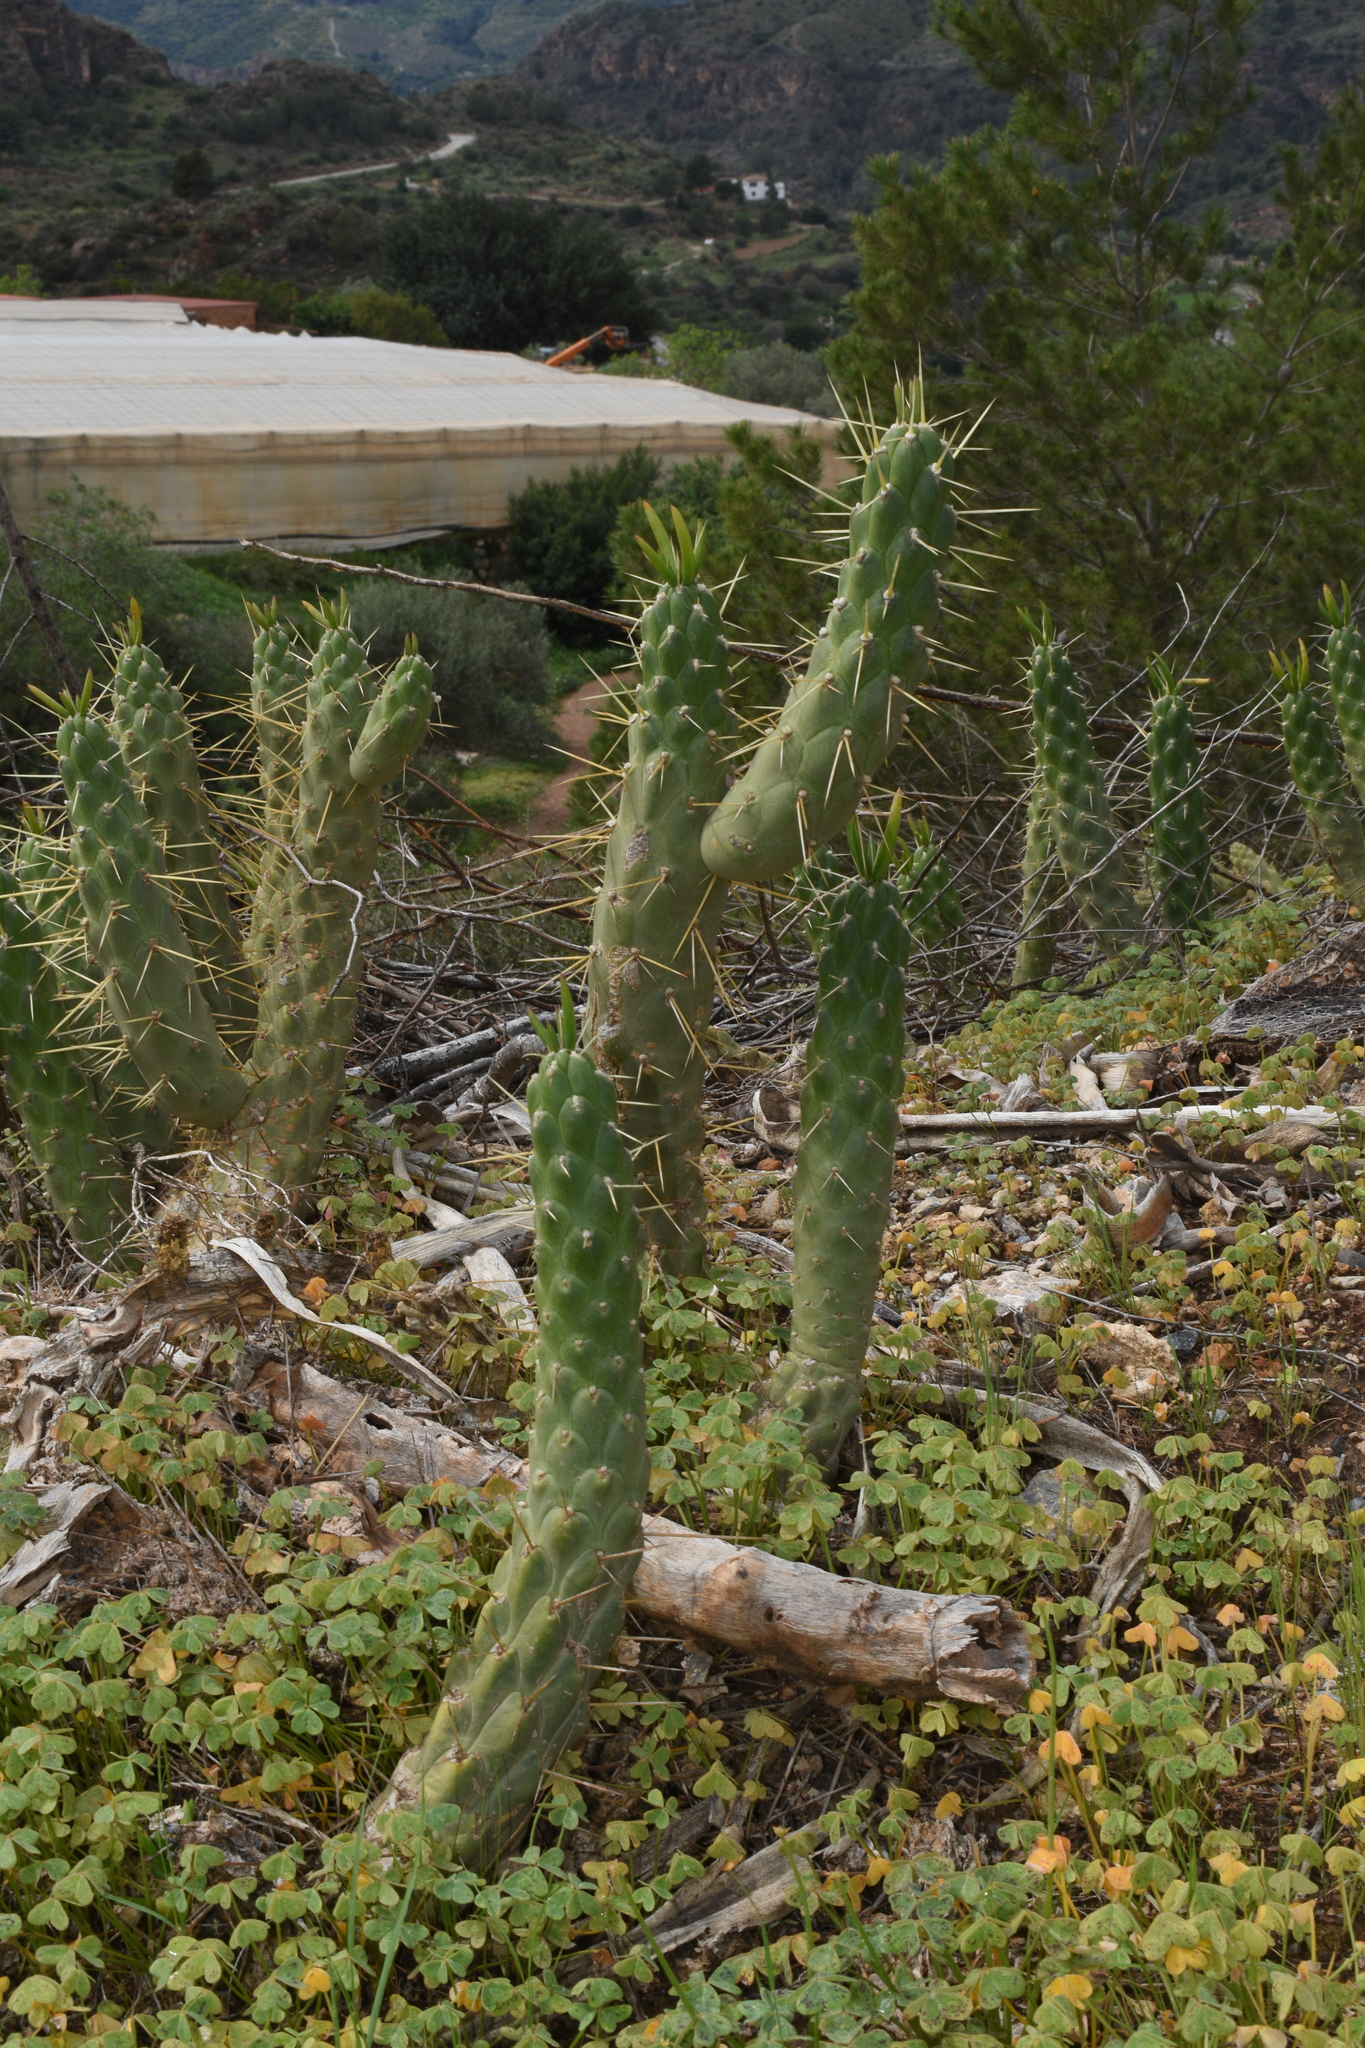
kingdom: Plantae
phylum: Tracheophyta
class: Magnoliopsida
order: Caryophyllales
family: Cactaceae
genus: Austrocylindropuntia
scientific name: Austrocylindropuntia subulata
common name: Eve's needle cactus
